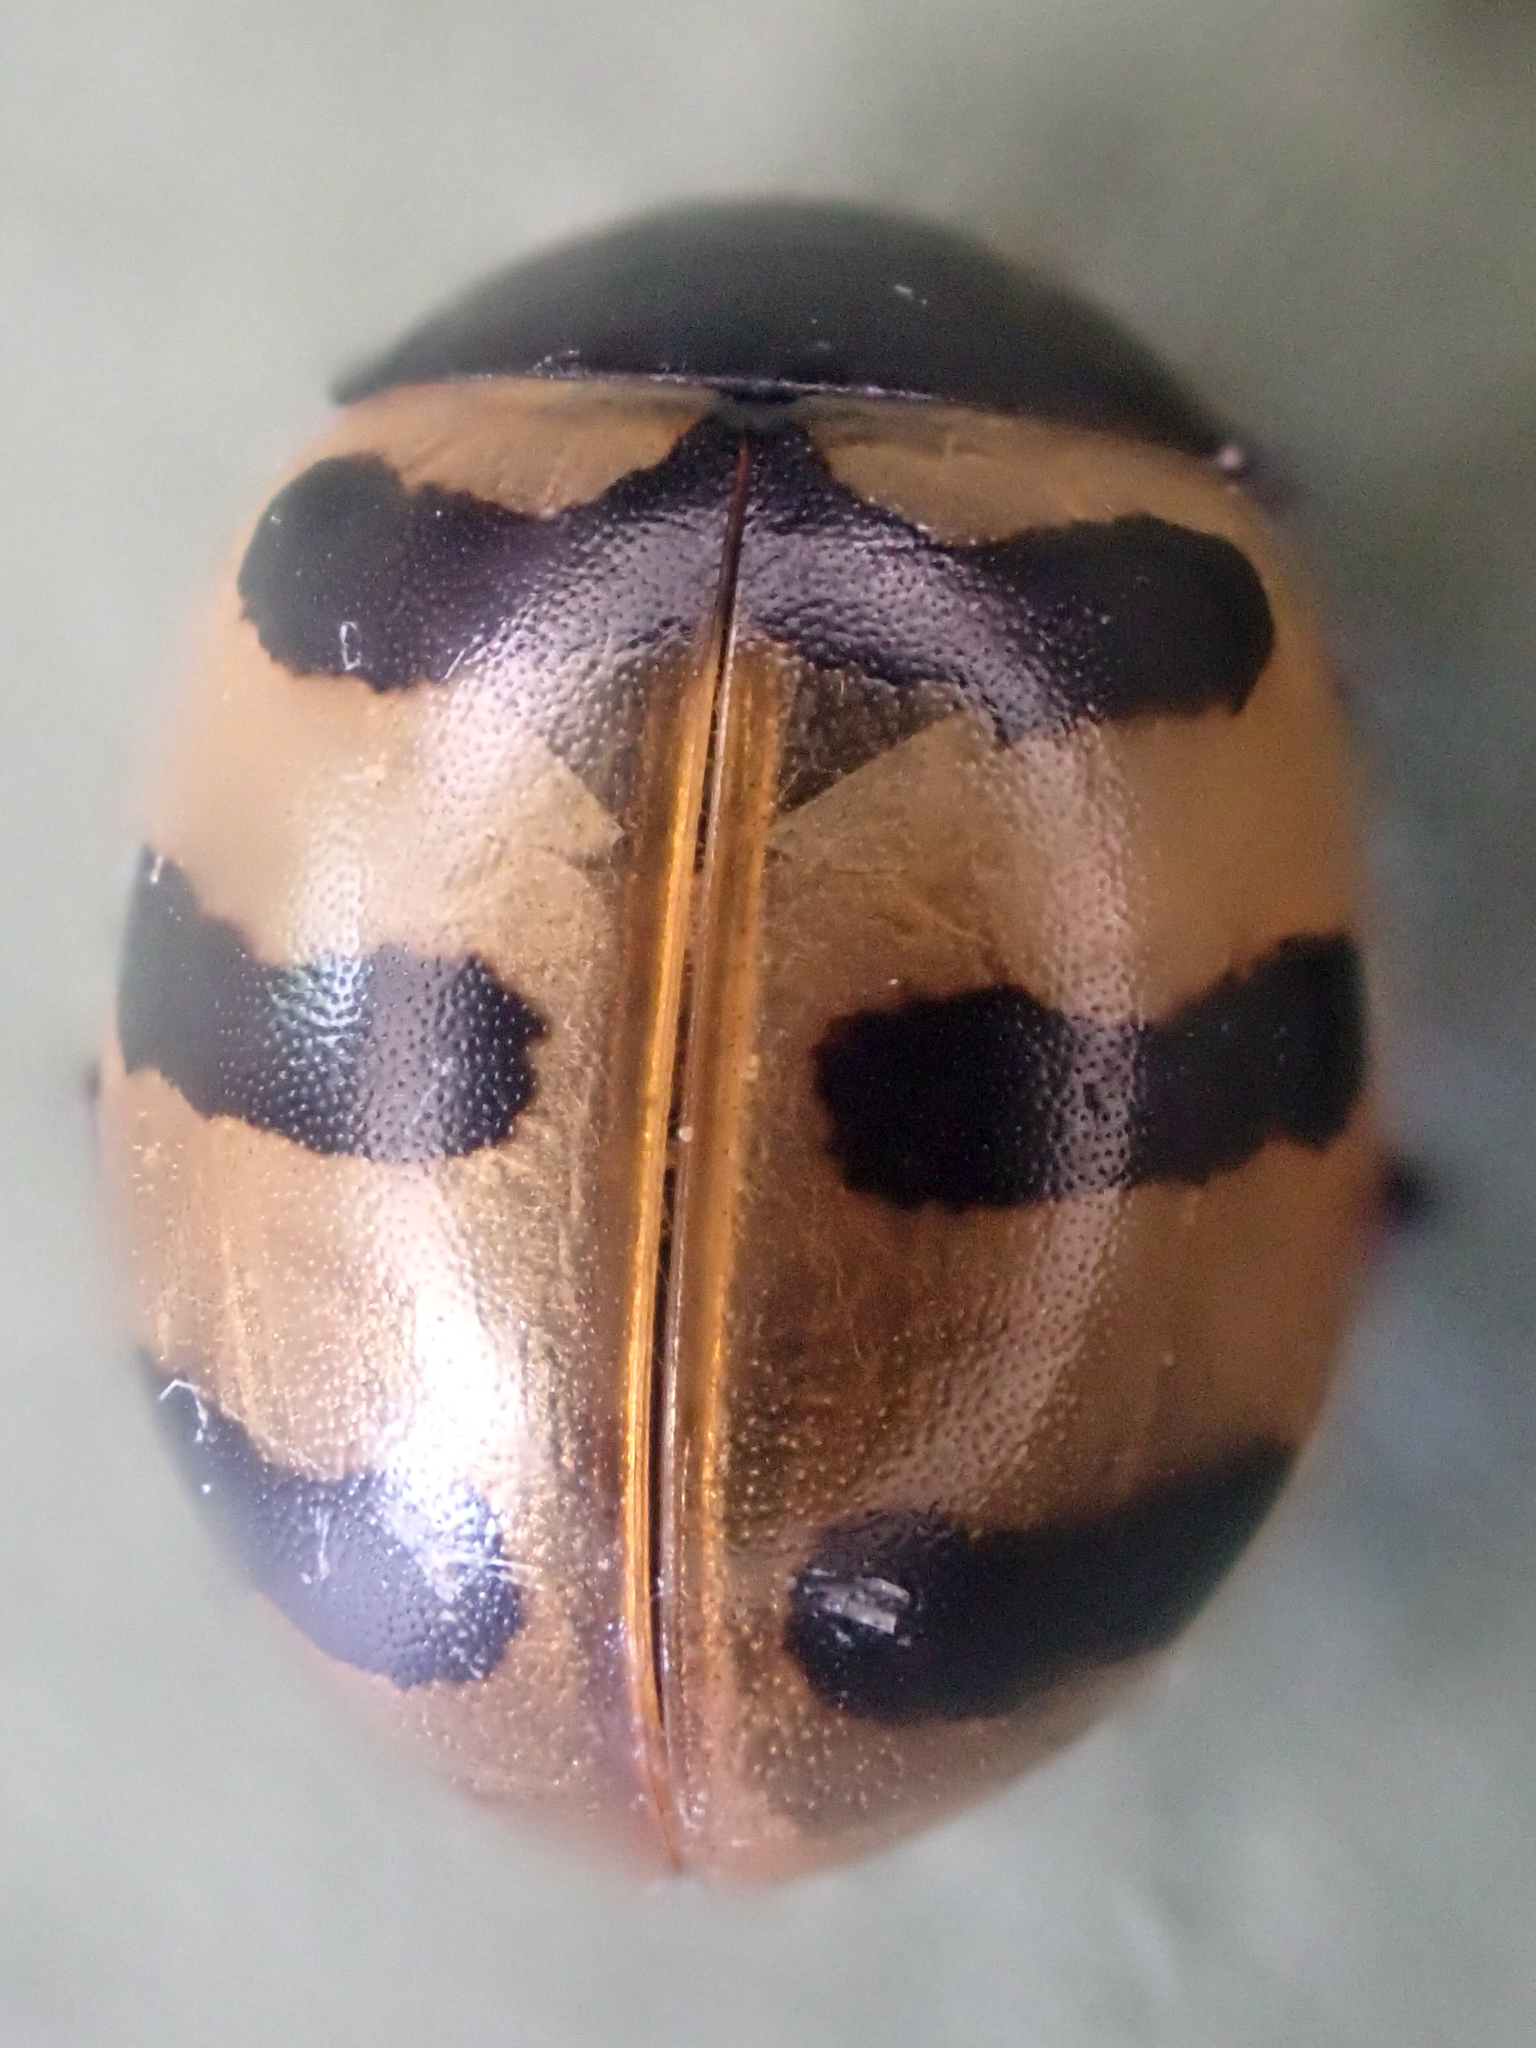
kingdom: Animalia
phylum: Arthropoda
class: Insecta
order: Coleoptera
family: Coccinellidae
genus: Coccinella
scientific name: Coccinella trifasciata
